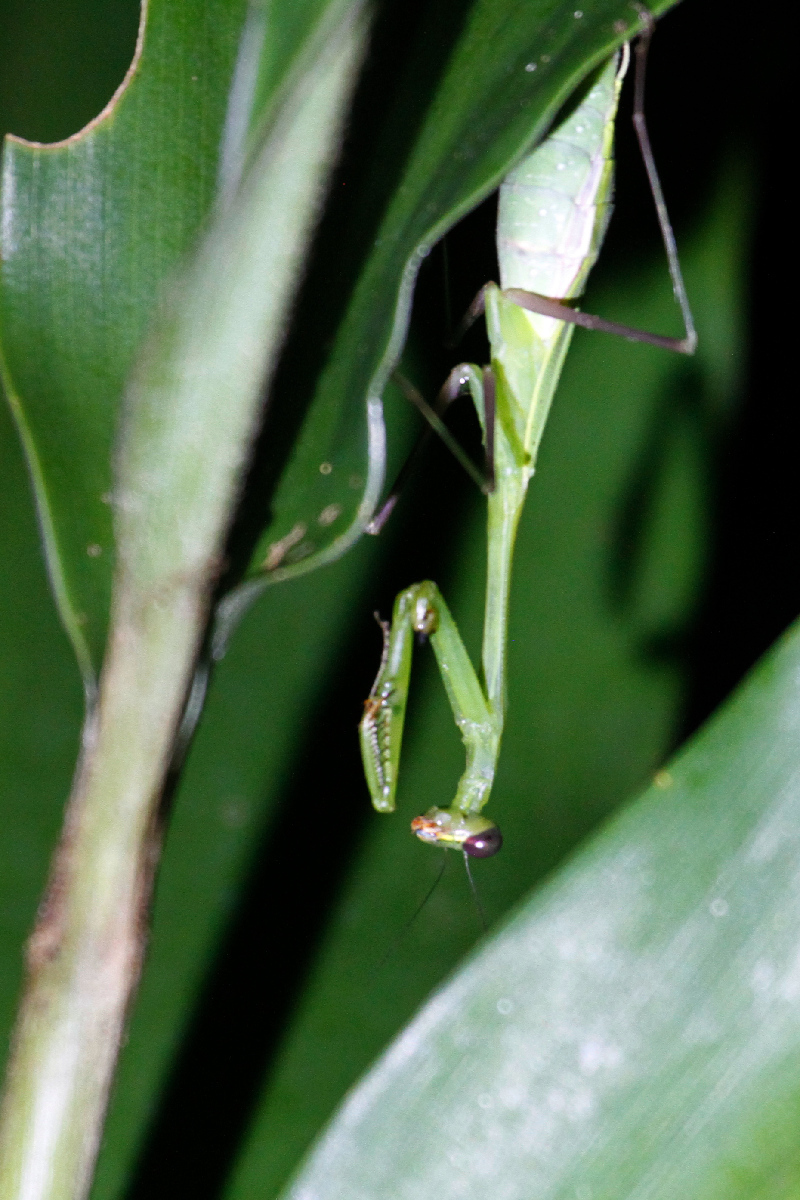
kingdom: Animalia
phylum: Arthropoda
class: Insecta
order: Mantodea
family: Mantidae
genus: Chopardiella
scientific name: Chopardiella heterogamia
